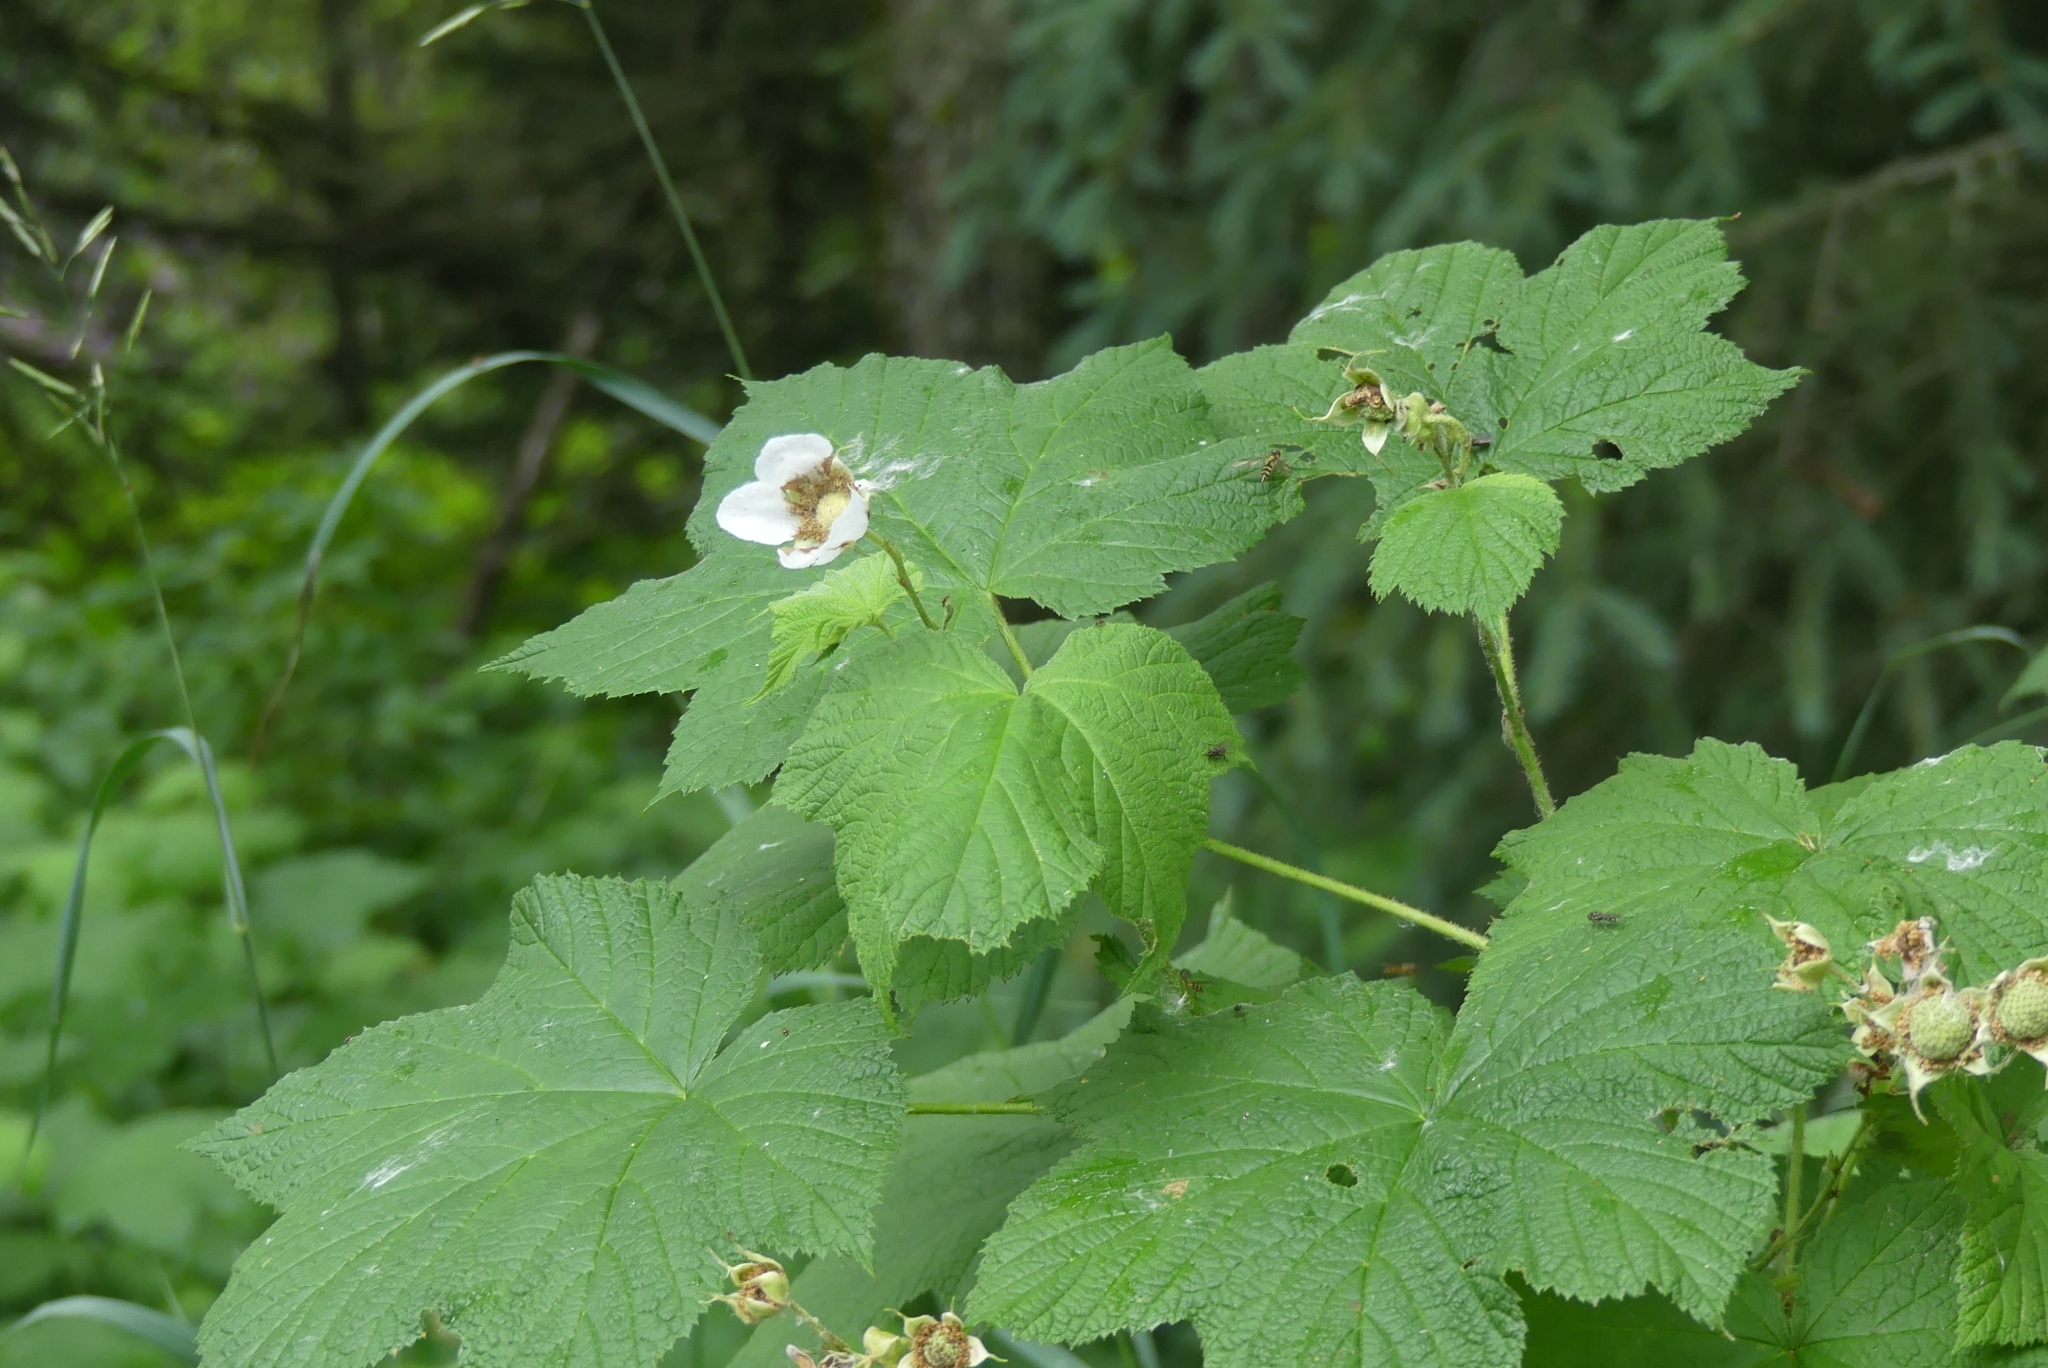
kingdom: Plantae
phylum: Tracheophyta
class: Magnoliopsida
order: Rosales
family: Rosaceae
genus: Rubus
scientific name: Rubus parviflorus
